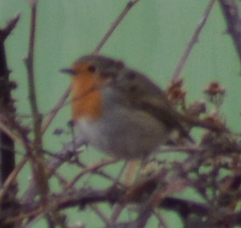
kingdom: Animalia
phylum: Chordata
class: Aves
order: Passeriformes
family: Muscicapidae
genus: Erithacus
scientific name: Erithacus rubecula
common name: European robin
